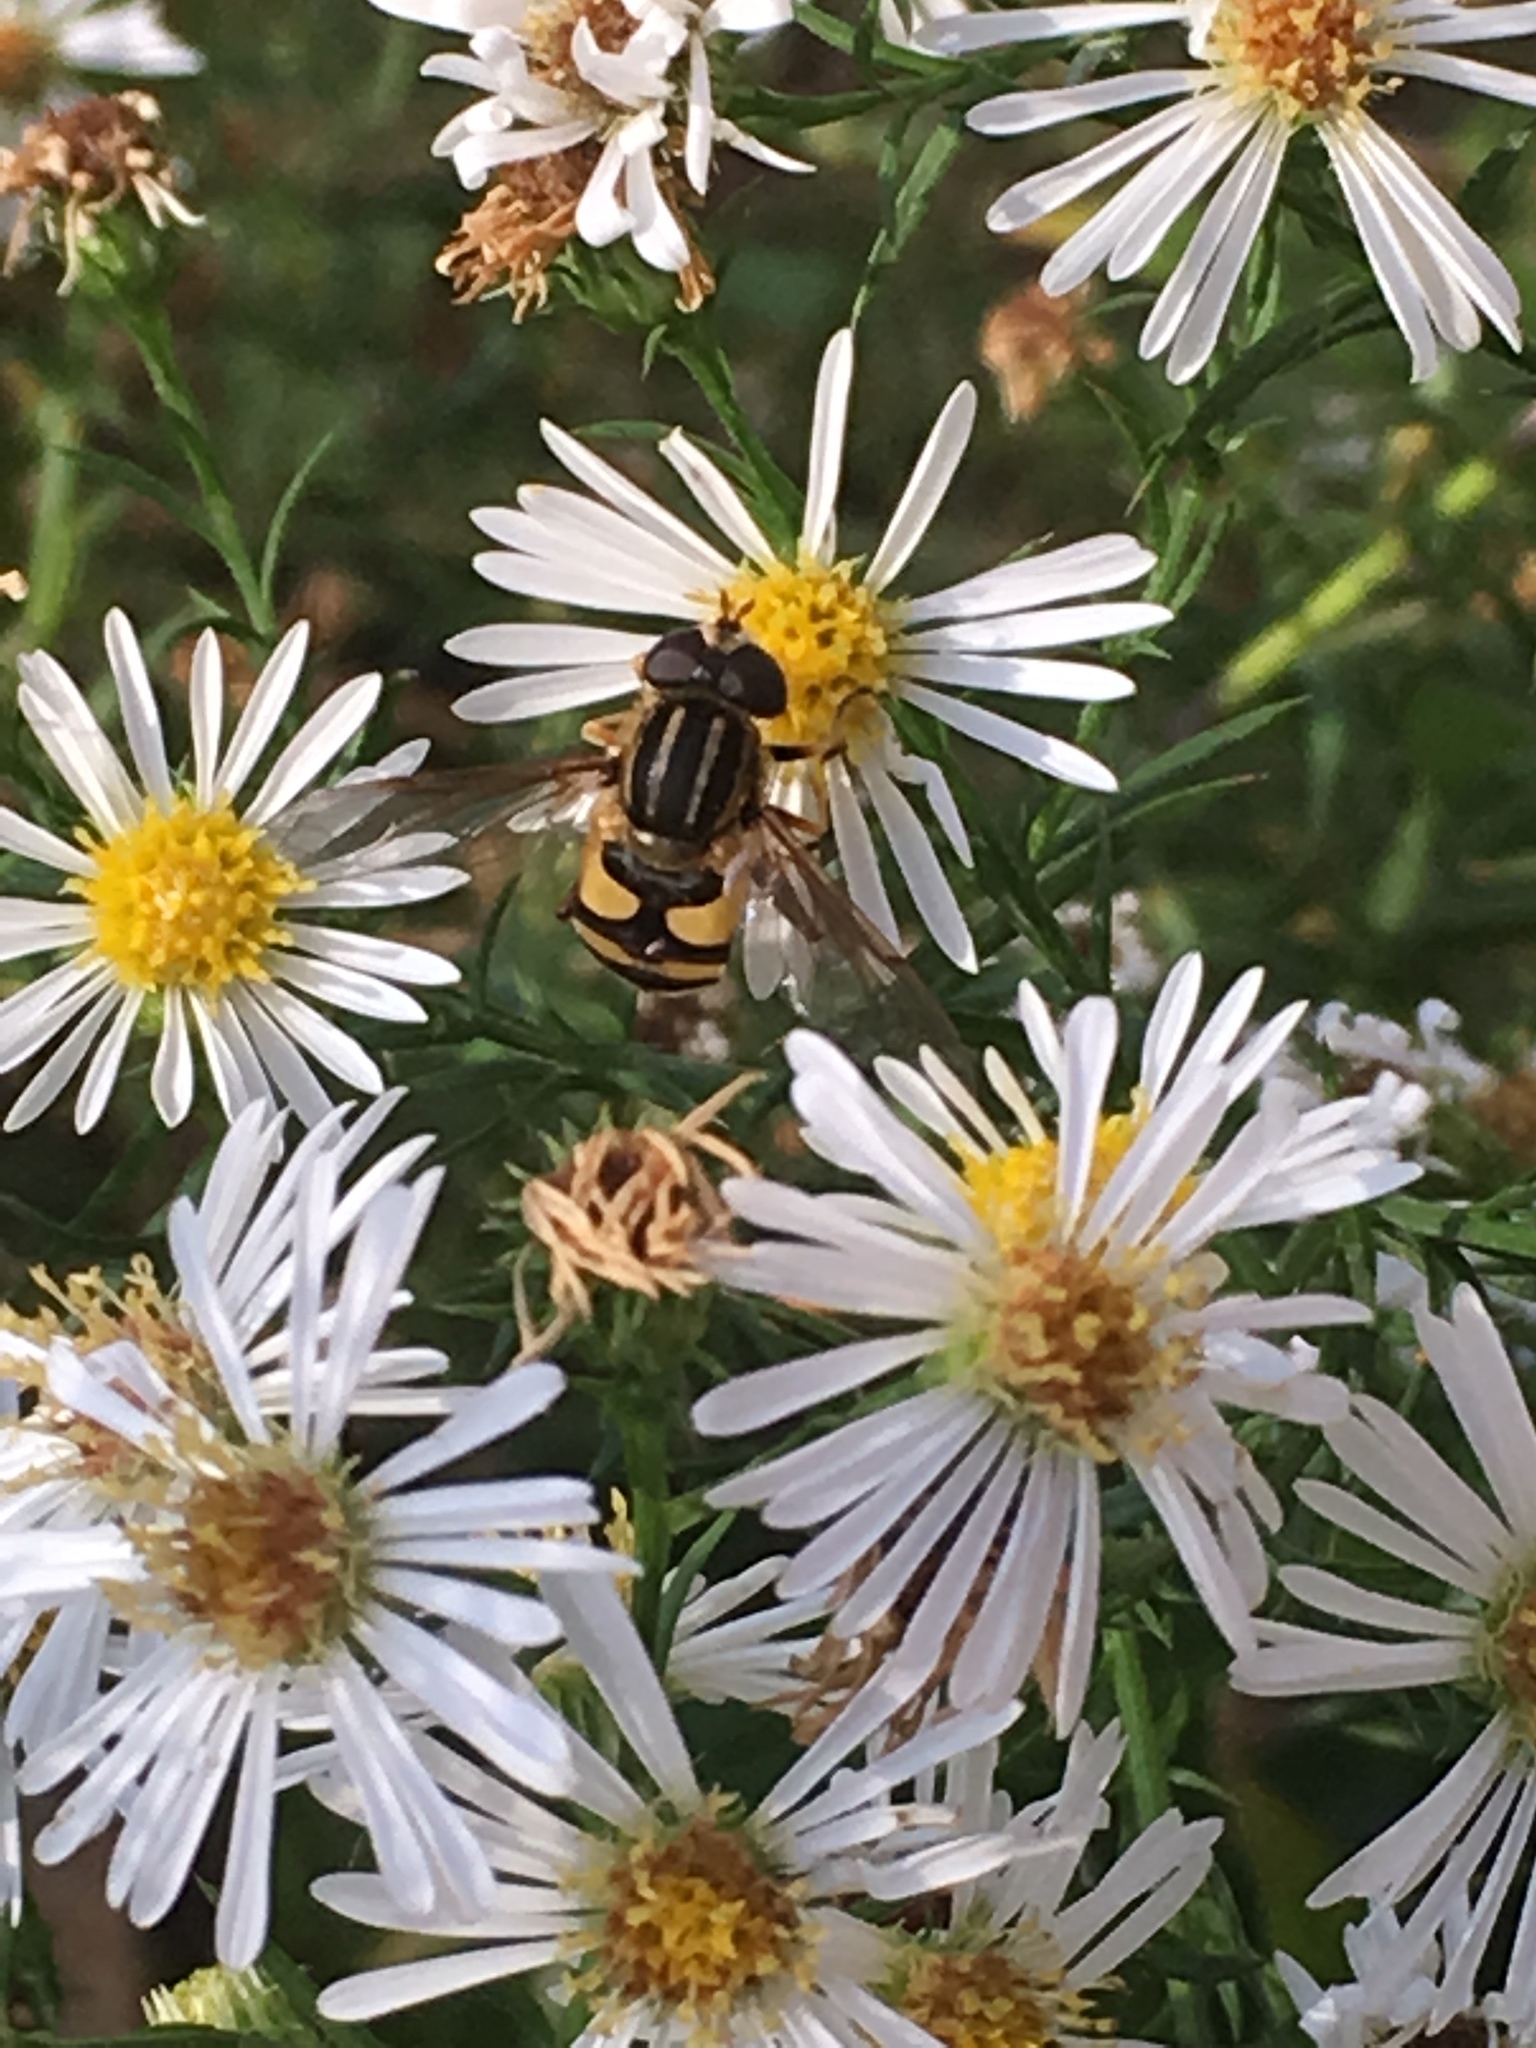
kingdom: Animalia
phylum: Arthropoda
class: Insecta
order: Diptera
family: Syrphidae
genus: Helophilus
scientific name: Helophilus fasciatus
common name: Narrow-headed marsh fly
